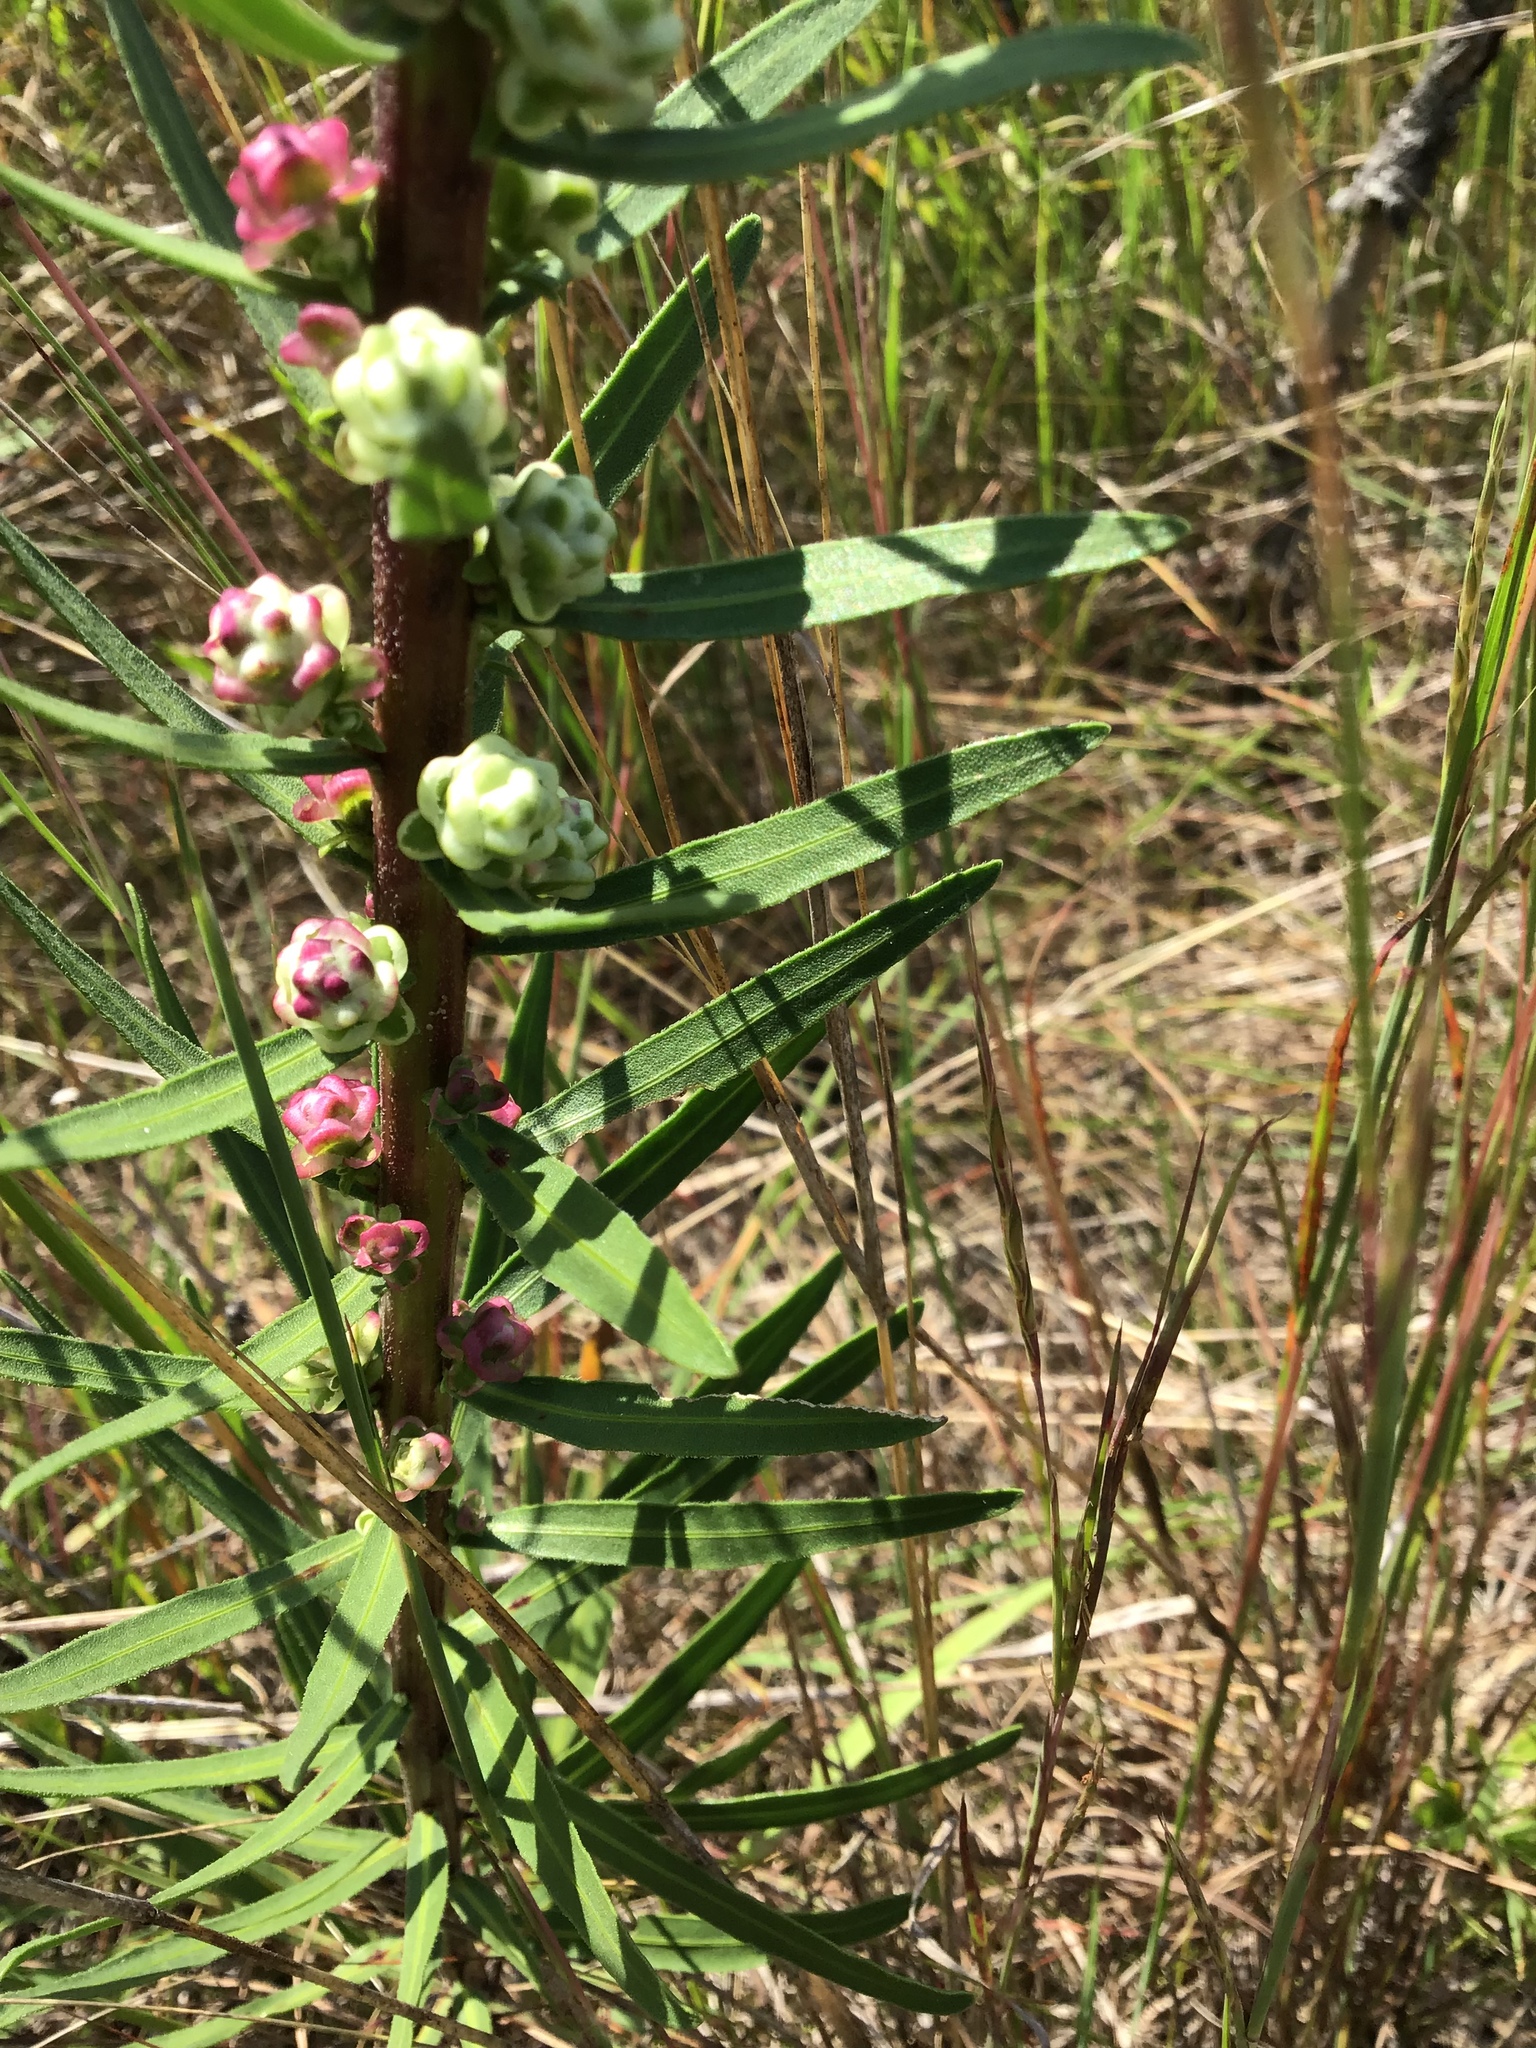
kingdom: Plantae
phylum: Tracheophyta
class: Magnoliopsida
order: Asterales
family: Asteraceae
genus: Liatris
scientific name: Liatris aspera
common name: Lacerate blazing-star
